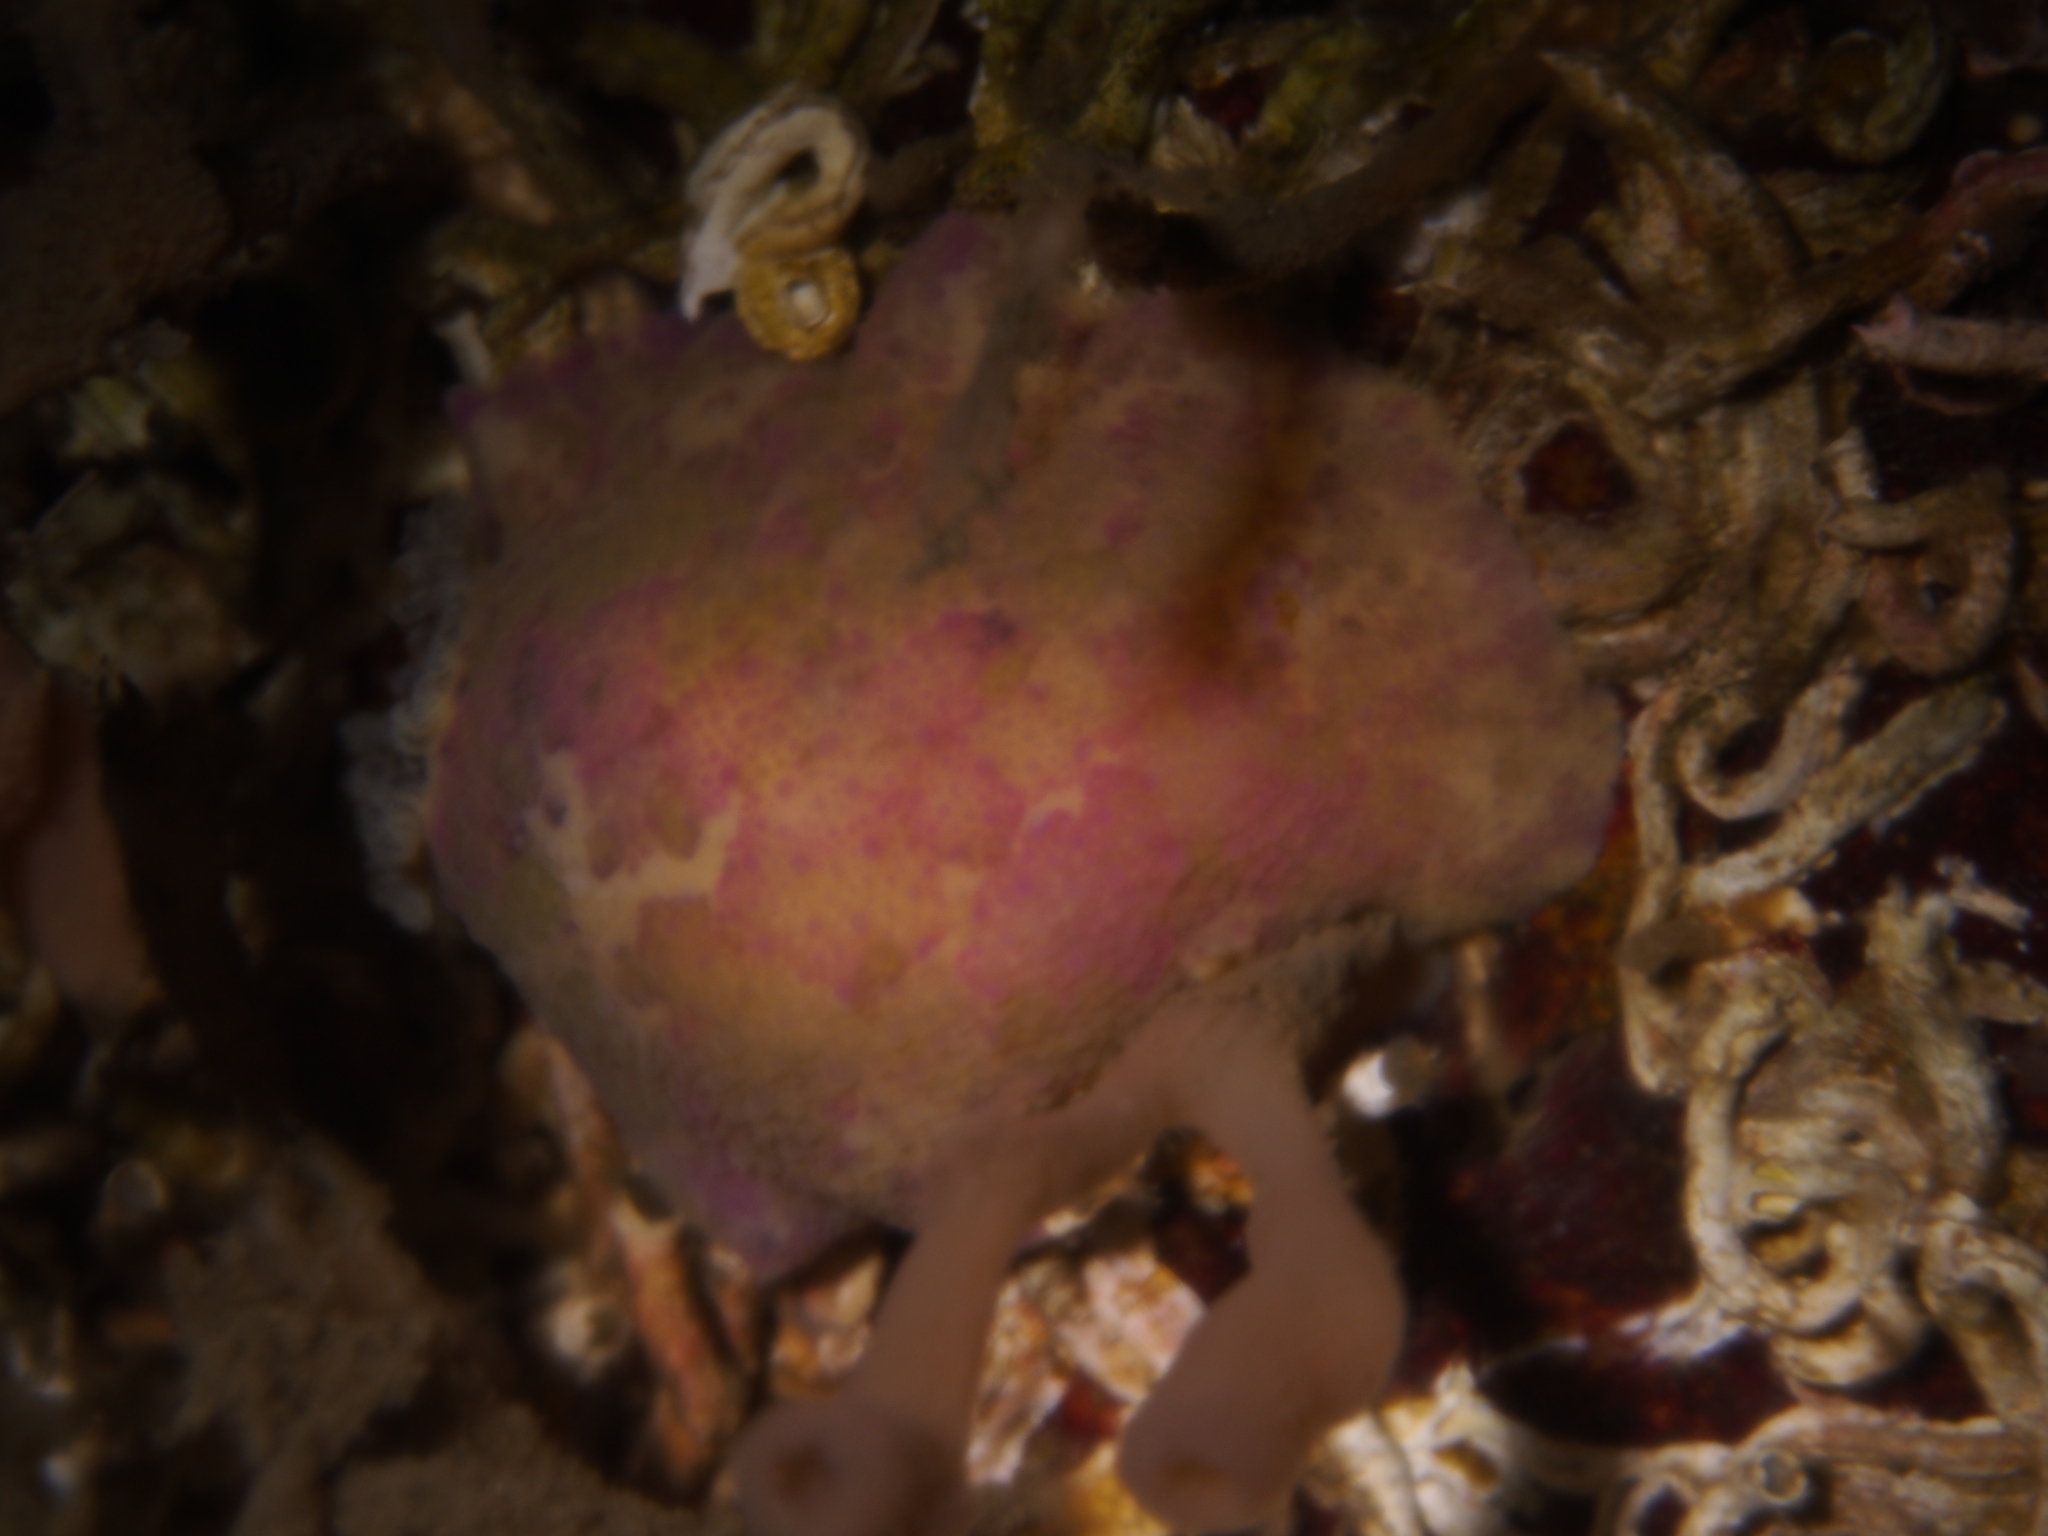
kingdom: Animalia
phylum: Mollusca
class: Gastropoda
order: Nudibranchia
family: Dorididae
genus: Doris
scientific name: Doris pseudoargus
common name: Sea lemon
